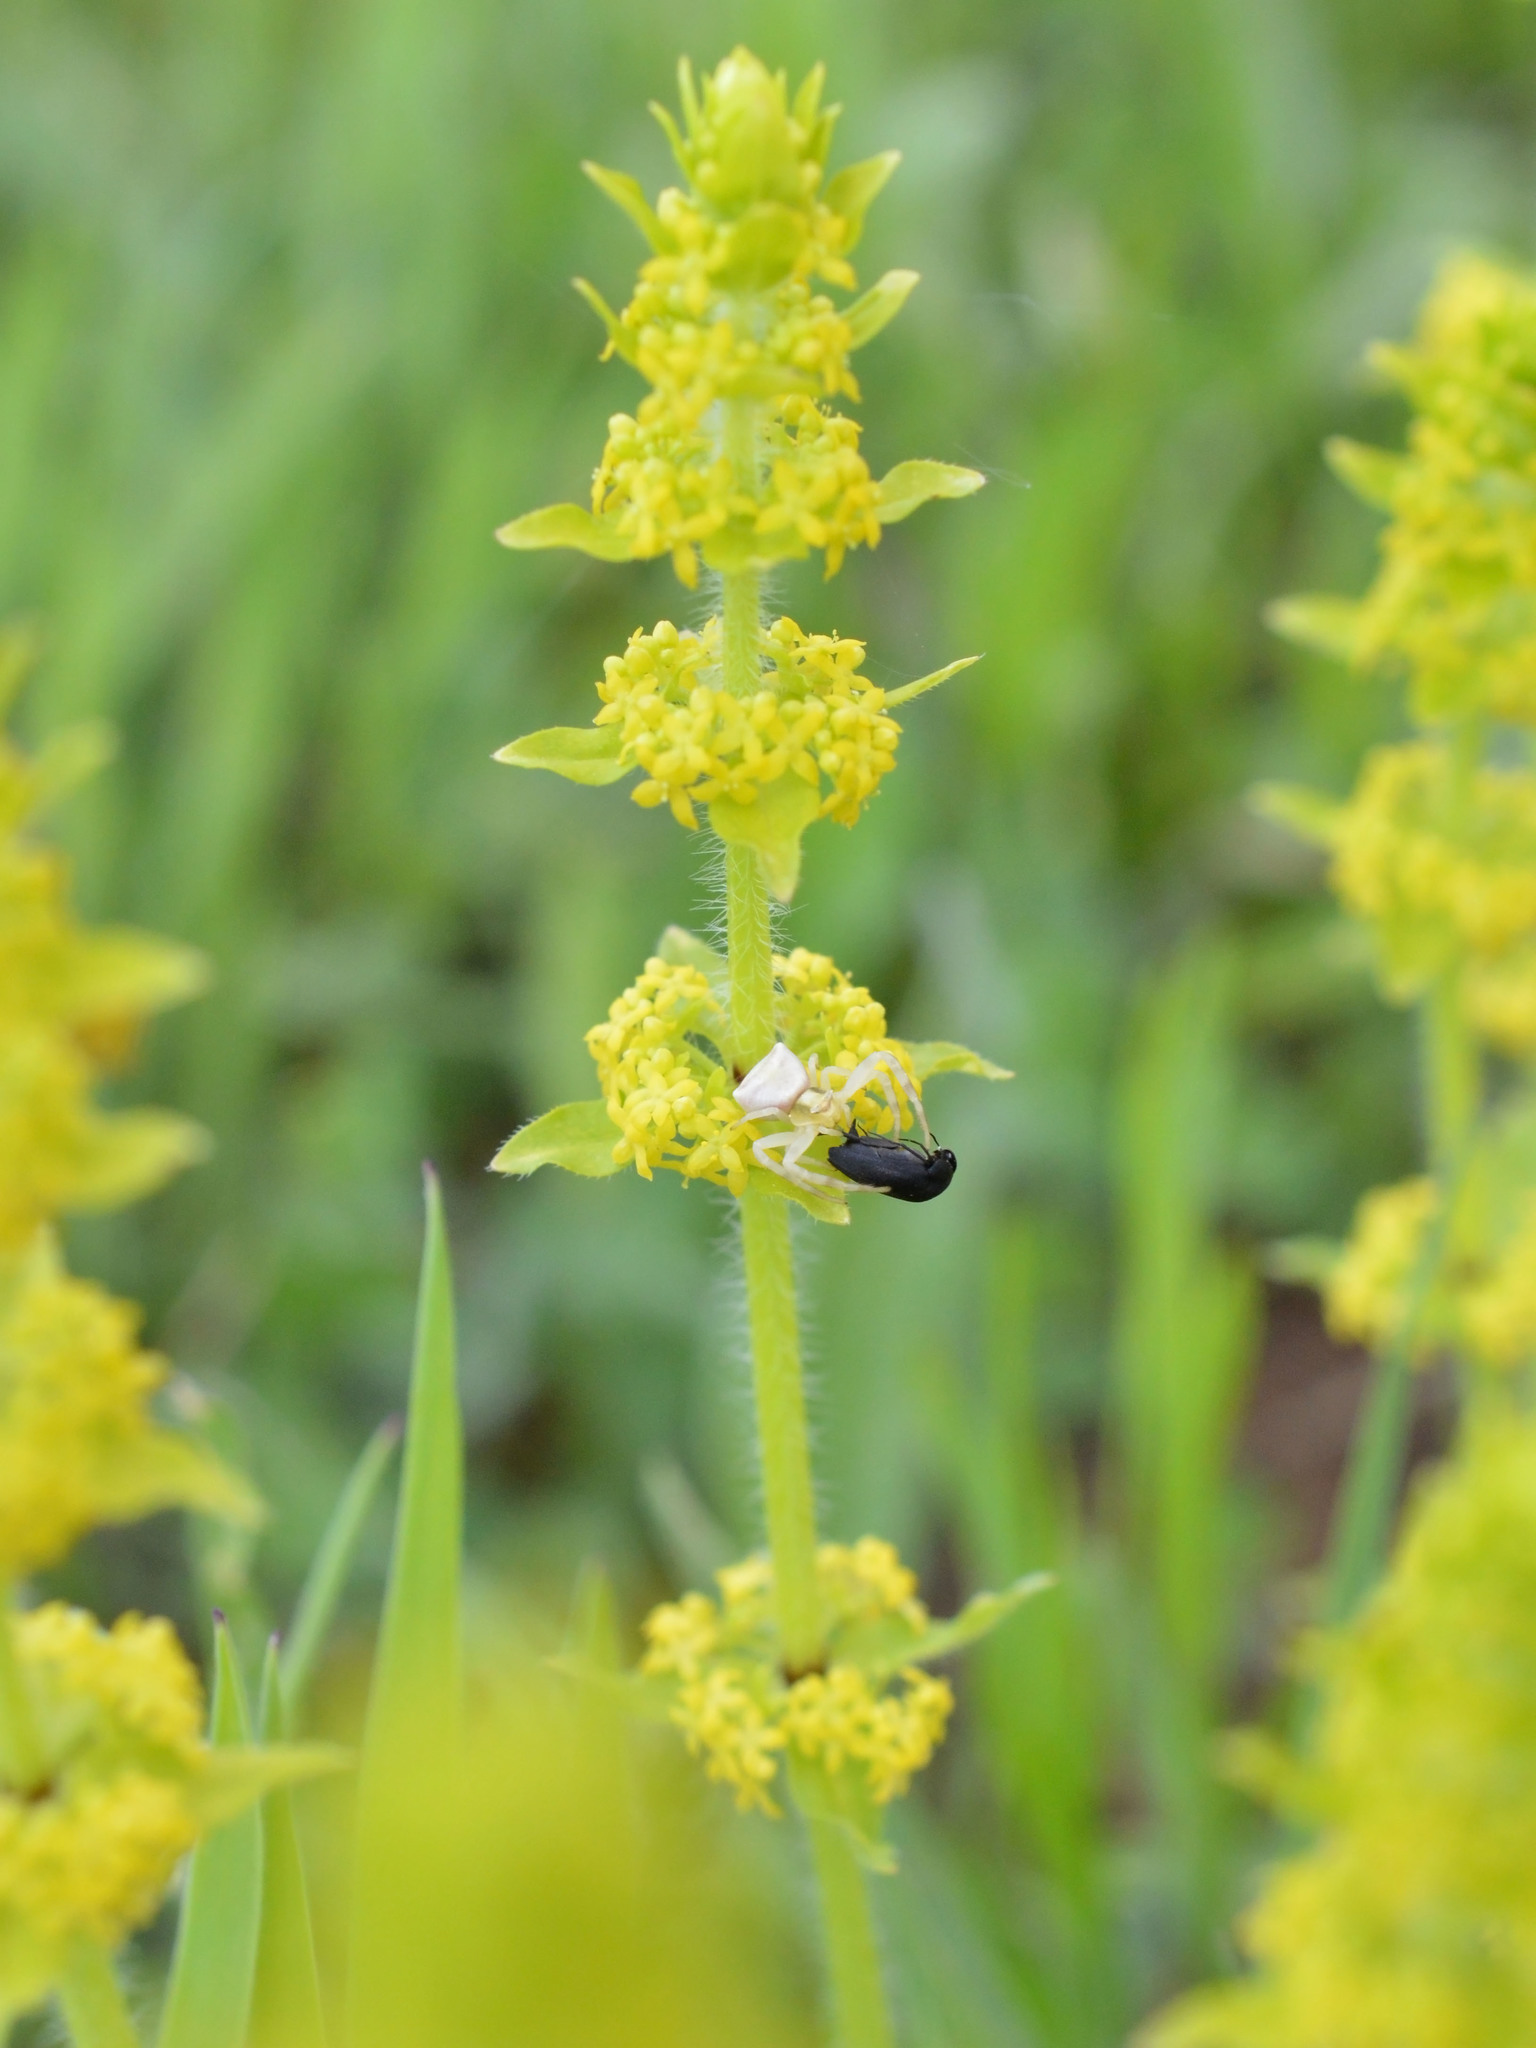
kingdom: Animalia
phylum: Arthropoda
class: Arachnida
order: Araneae
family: Thomisidae
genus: Thomisus
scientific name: Thomisus onustus
